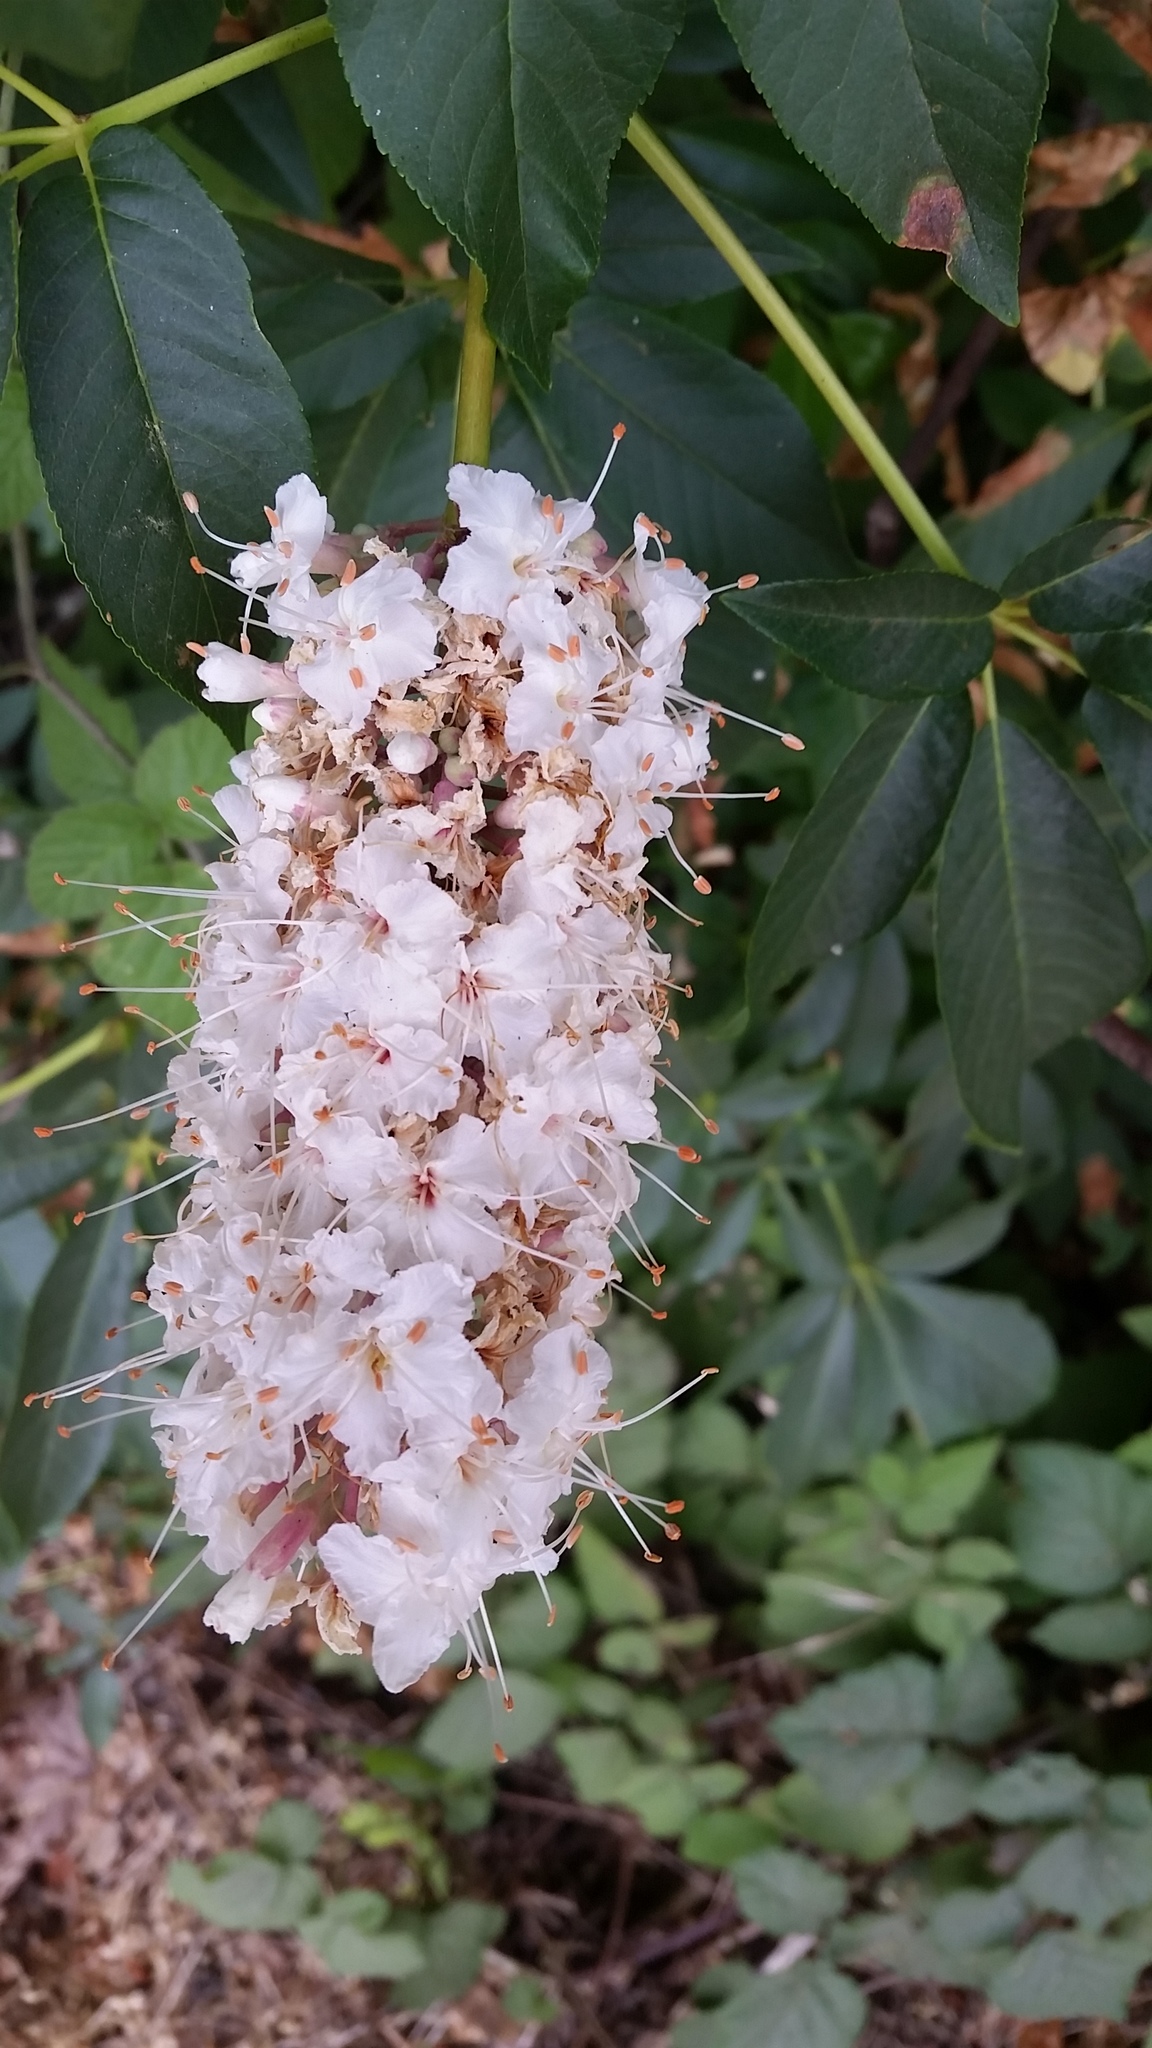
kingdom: Plantae
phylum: Tracheophyta
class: Magnoliopsida
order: Sapindales
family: Sapindaceae
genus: Aesculus
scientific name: Aesculus californica
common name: California buckeye
